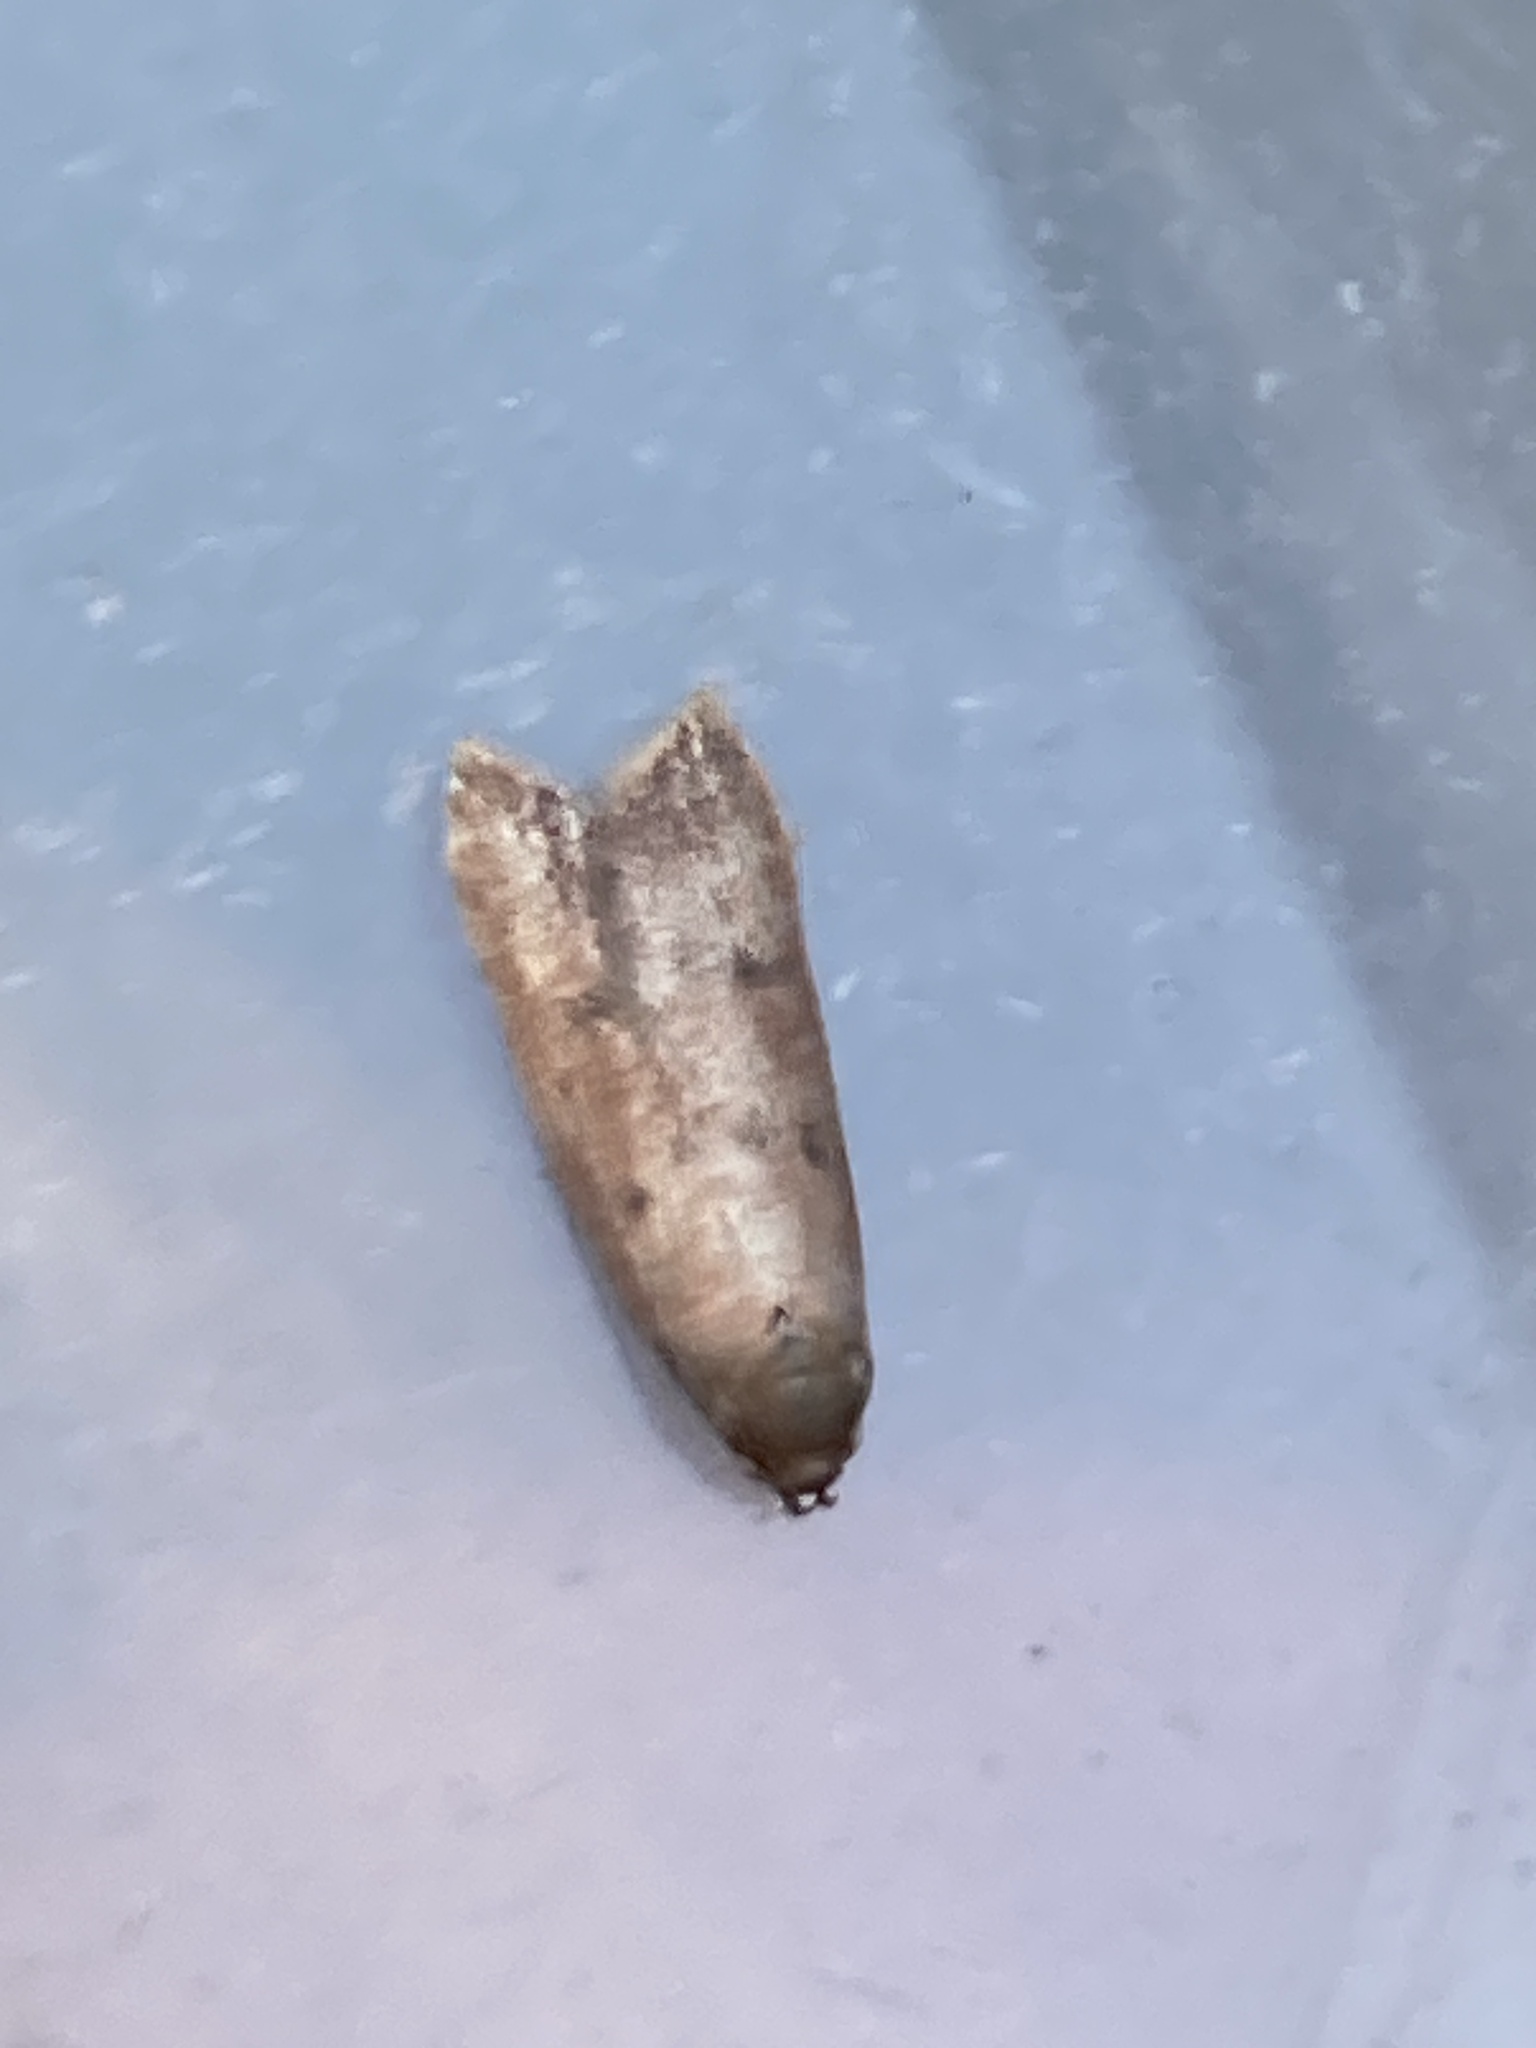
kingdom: Animalia
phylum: Arthropoda
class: Insecta
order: Lepidoptera
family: Oecophoridae
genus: Tachystola
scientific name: Tachystola acroxantha
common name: Ruddy streak
